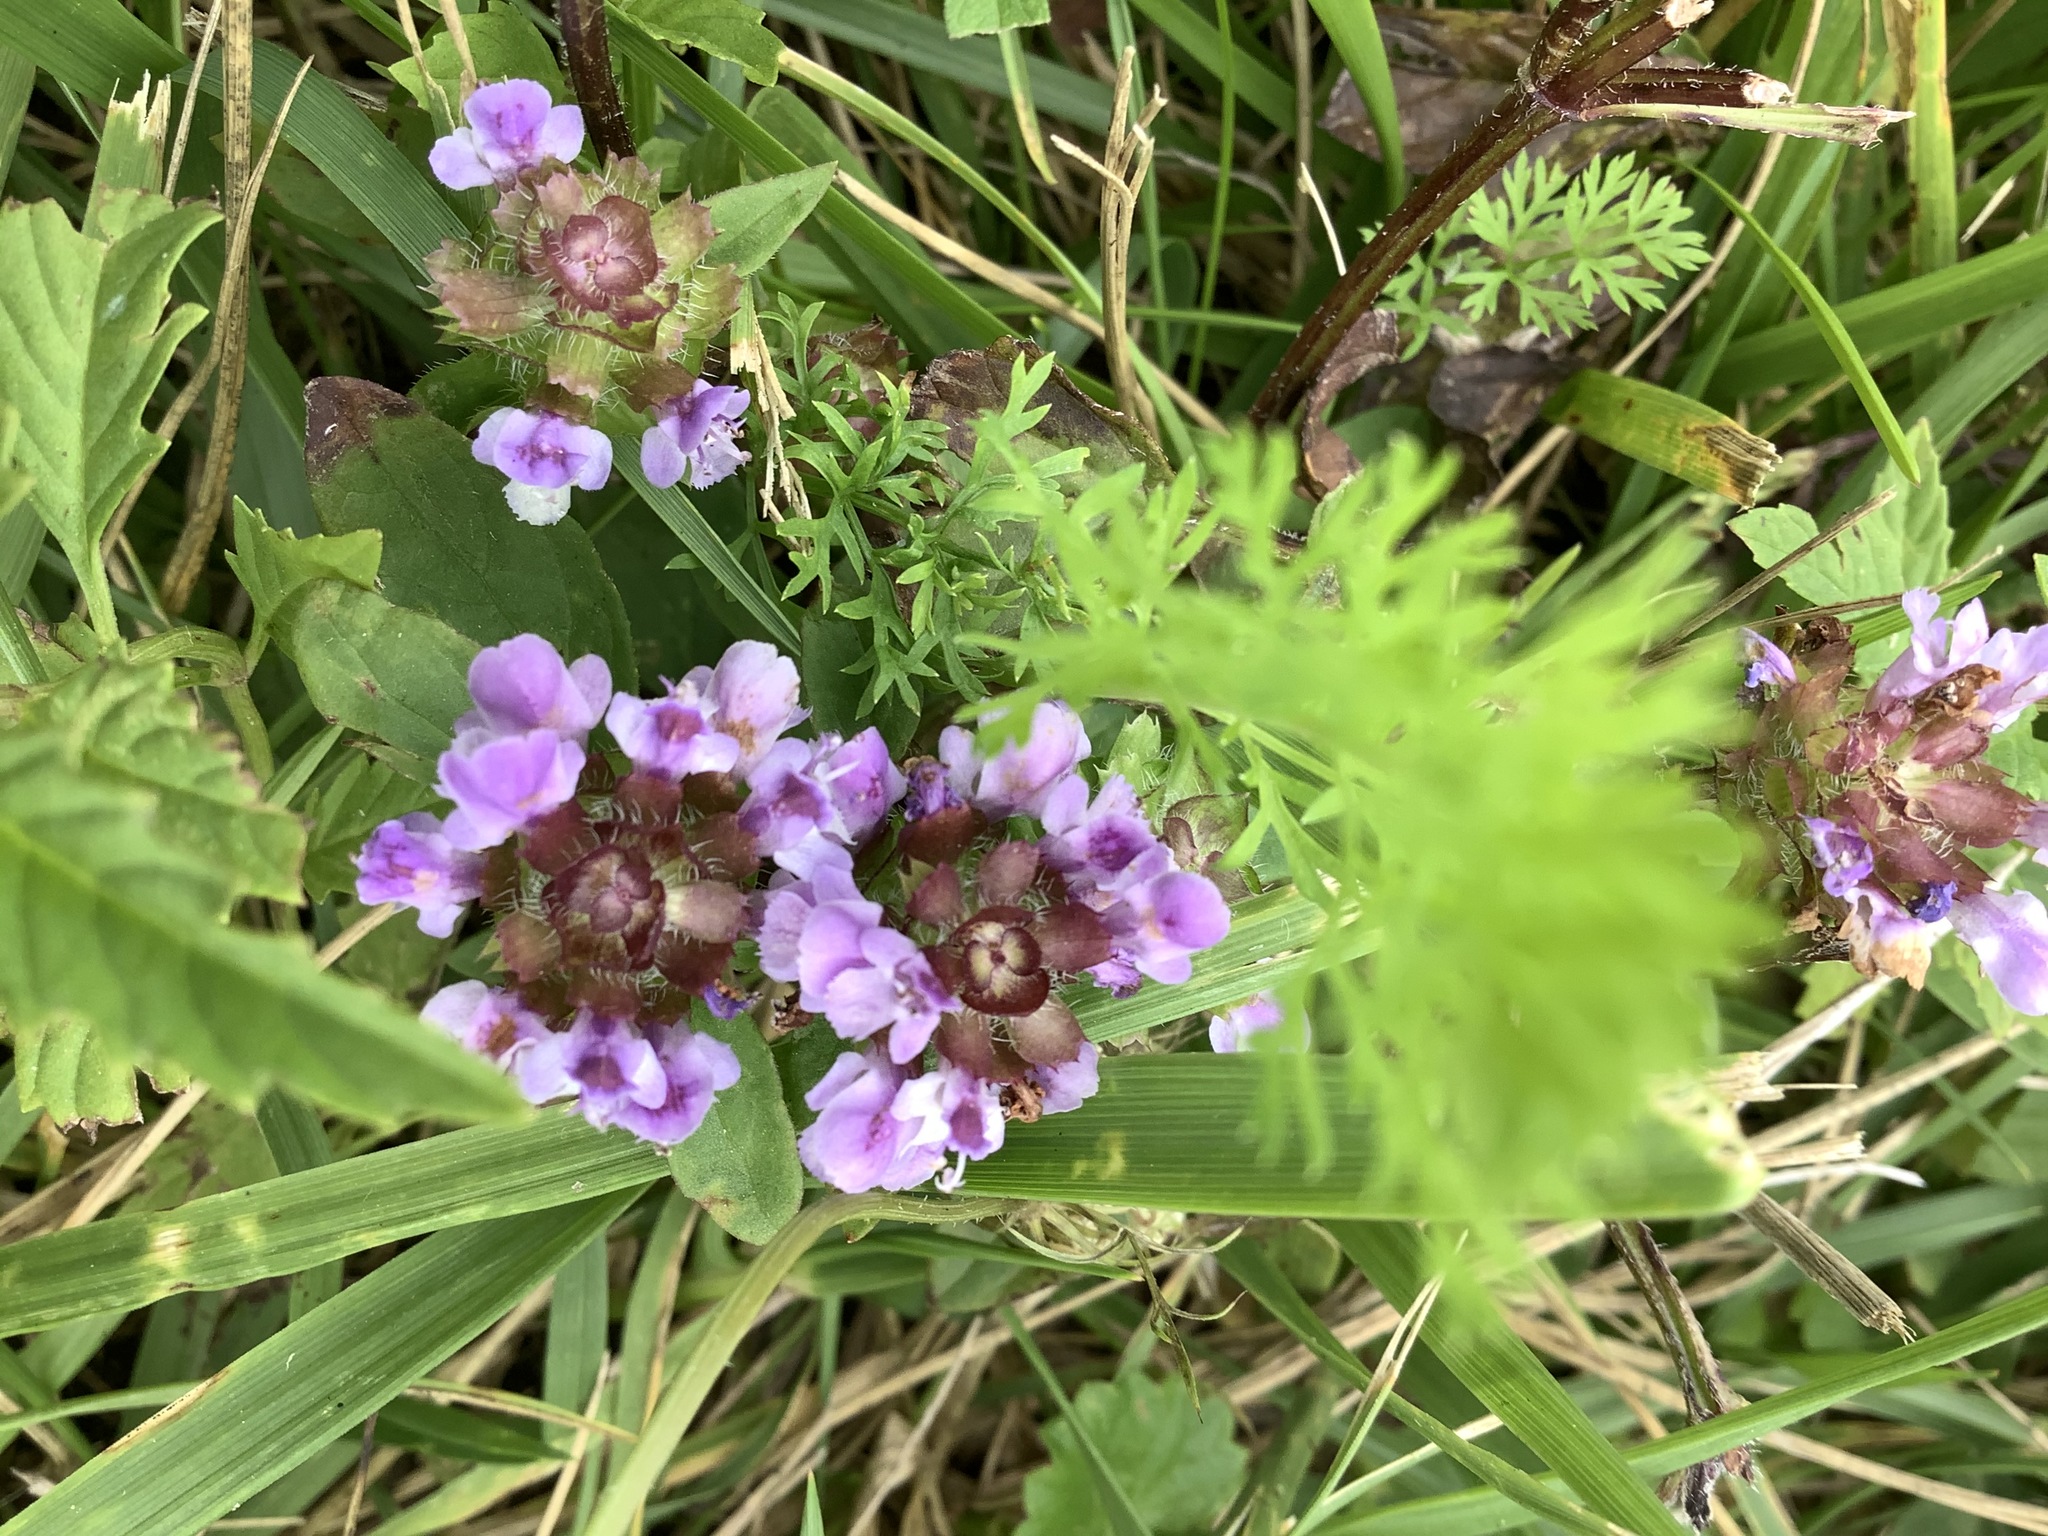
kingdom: Plantae
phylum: Tracheophyta
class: Magnoliopsida
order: Lamiales
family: Lamiaceae
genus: Prunella
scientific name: Prunella vulgaris
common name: Heal-all
